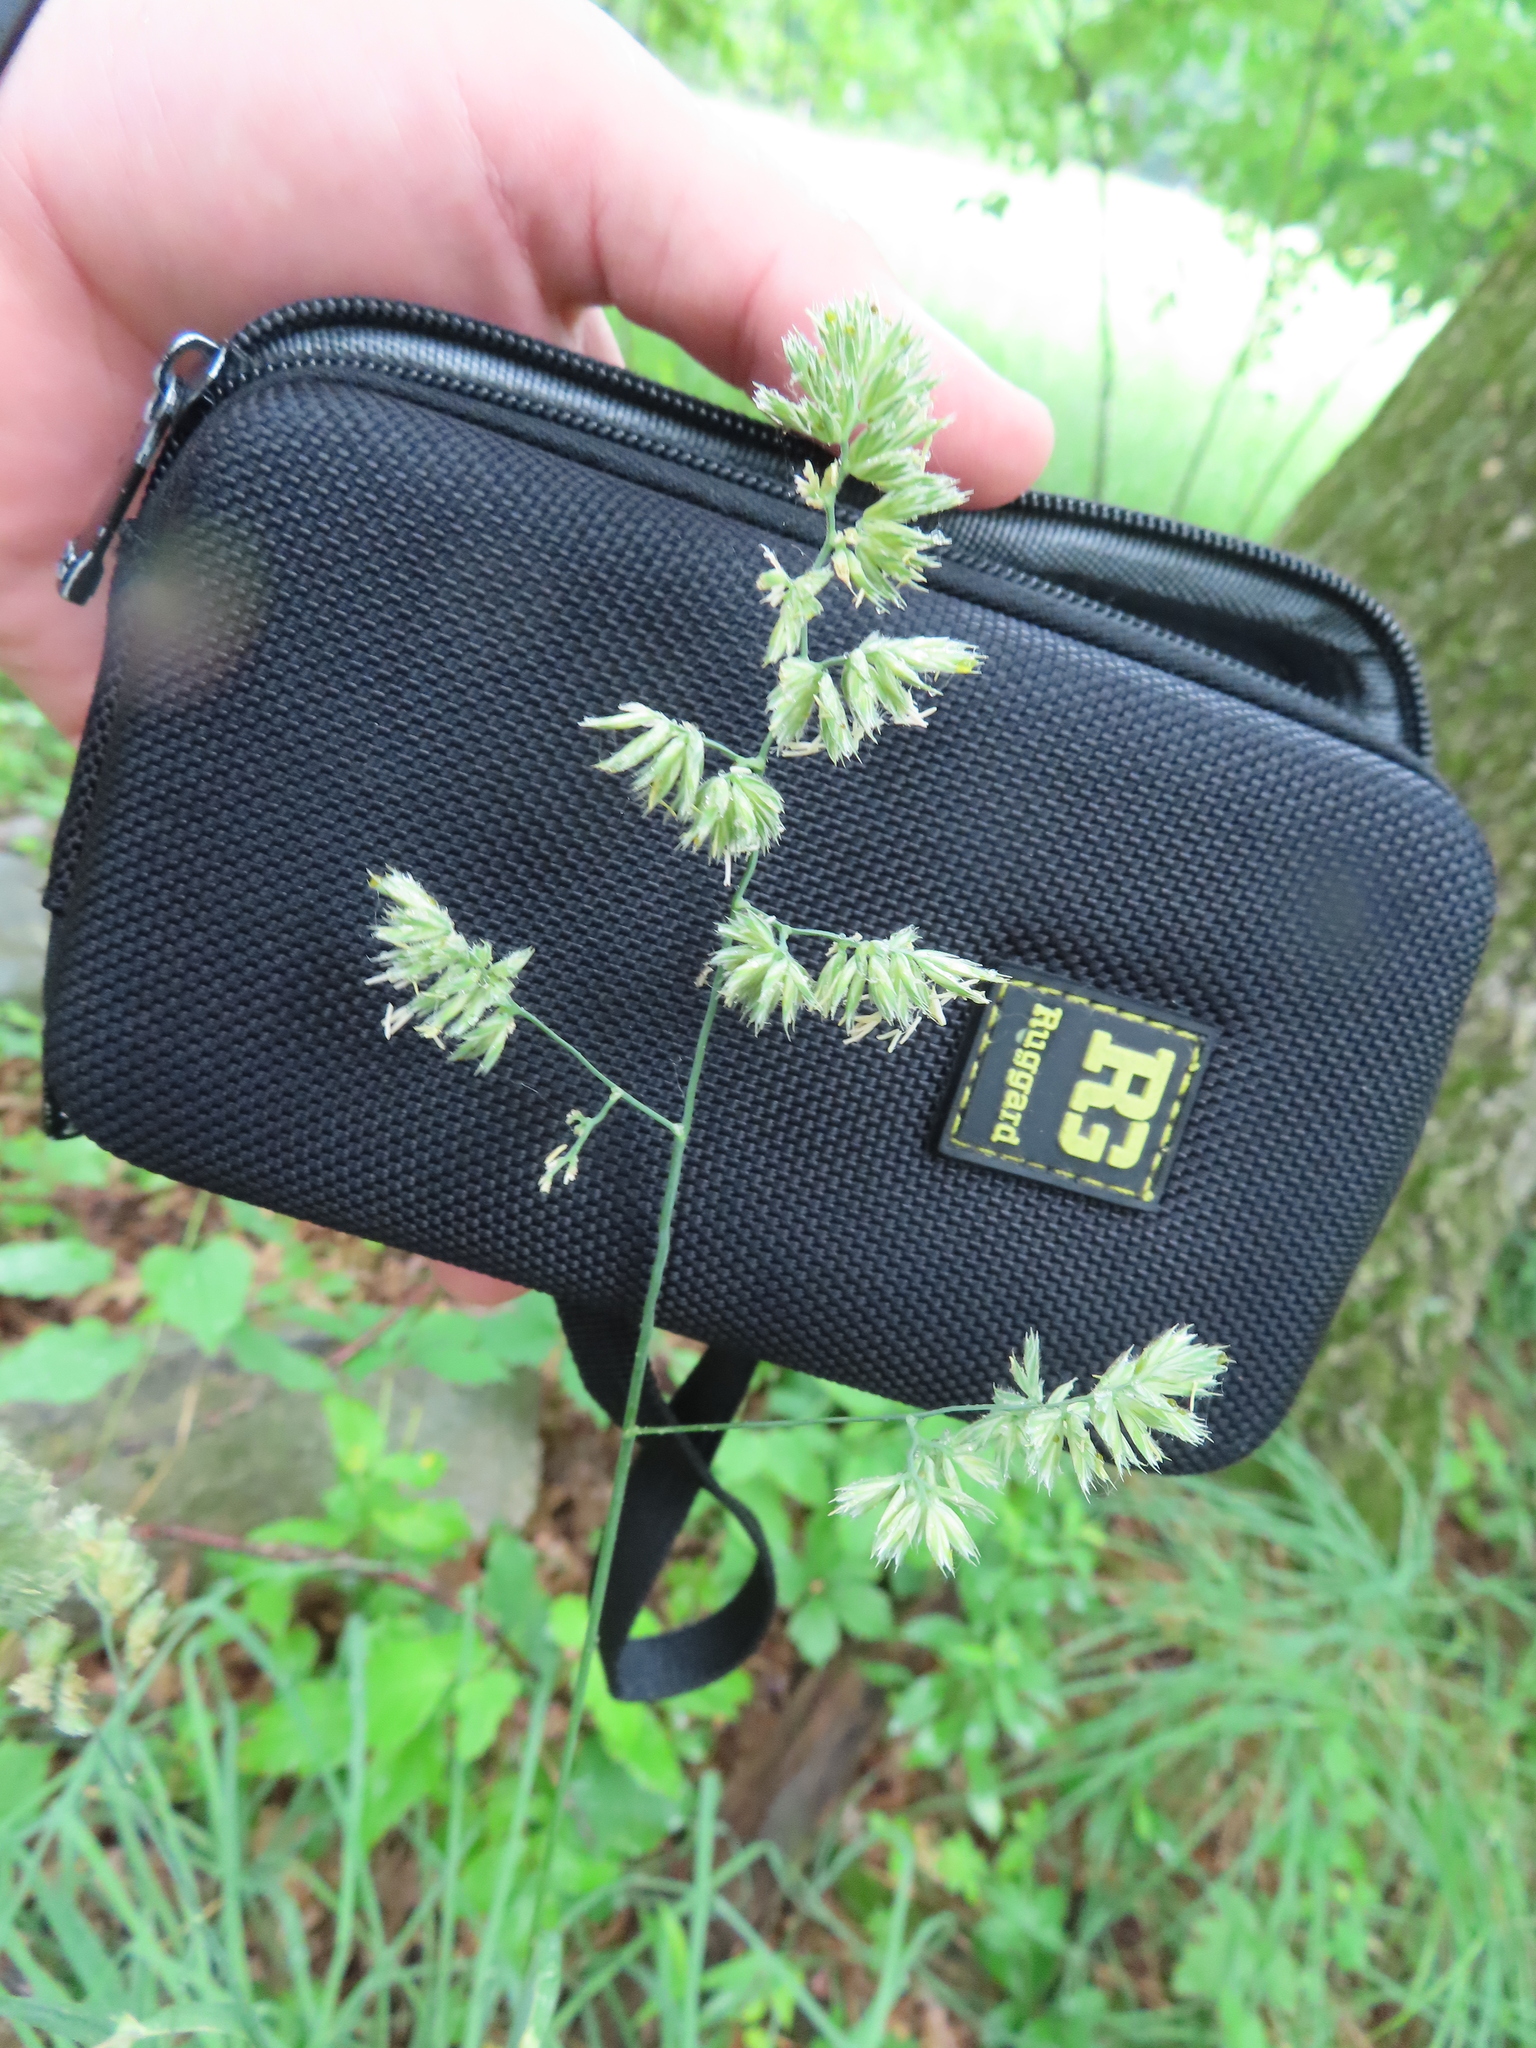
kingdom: Plantae
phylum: Tracheophyta
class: Liliopsida
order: Poales
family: Poaceae
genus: Dactylis
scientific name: Dactylis glomerata
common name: Orchardgrass
